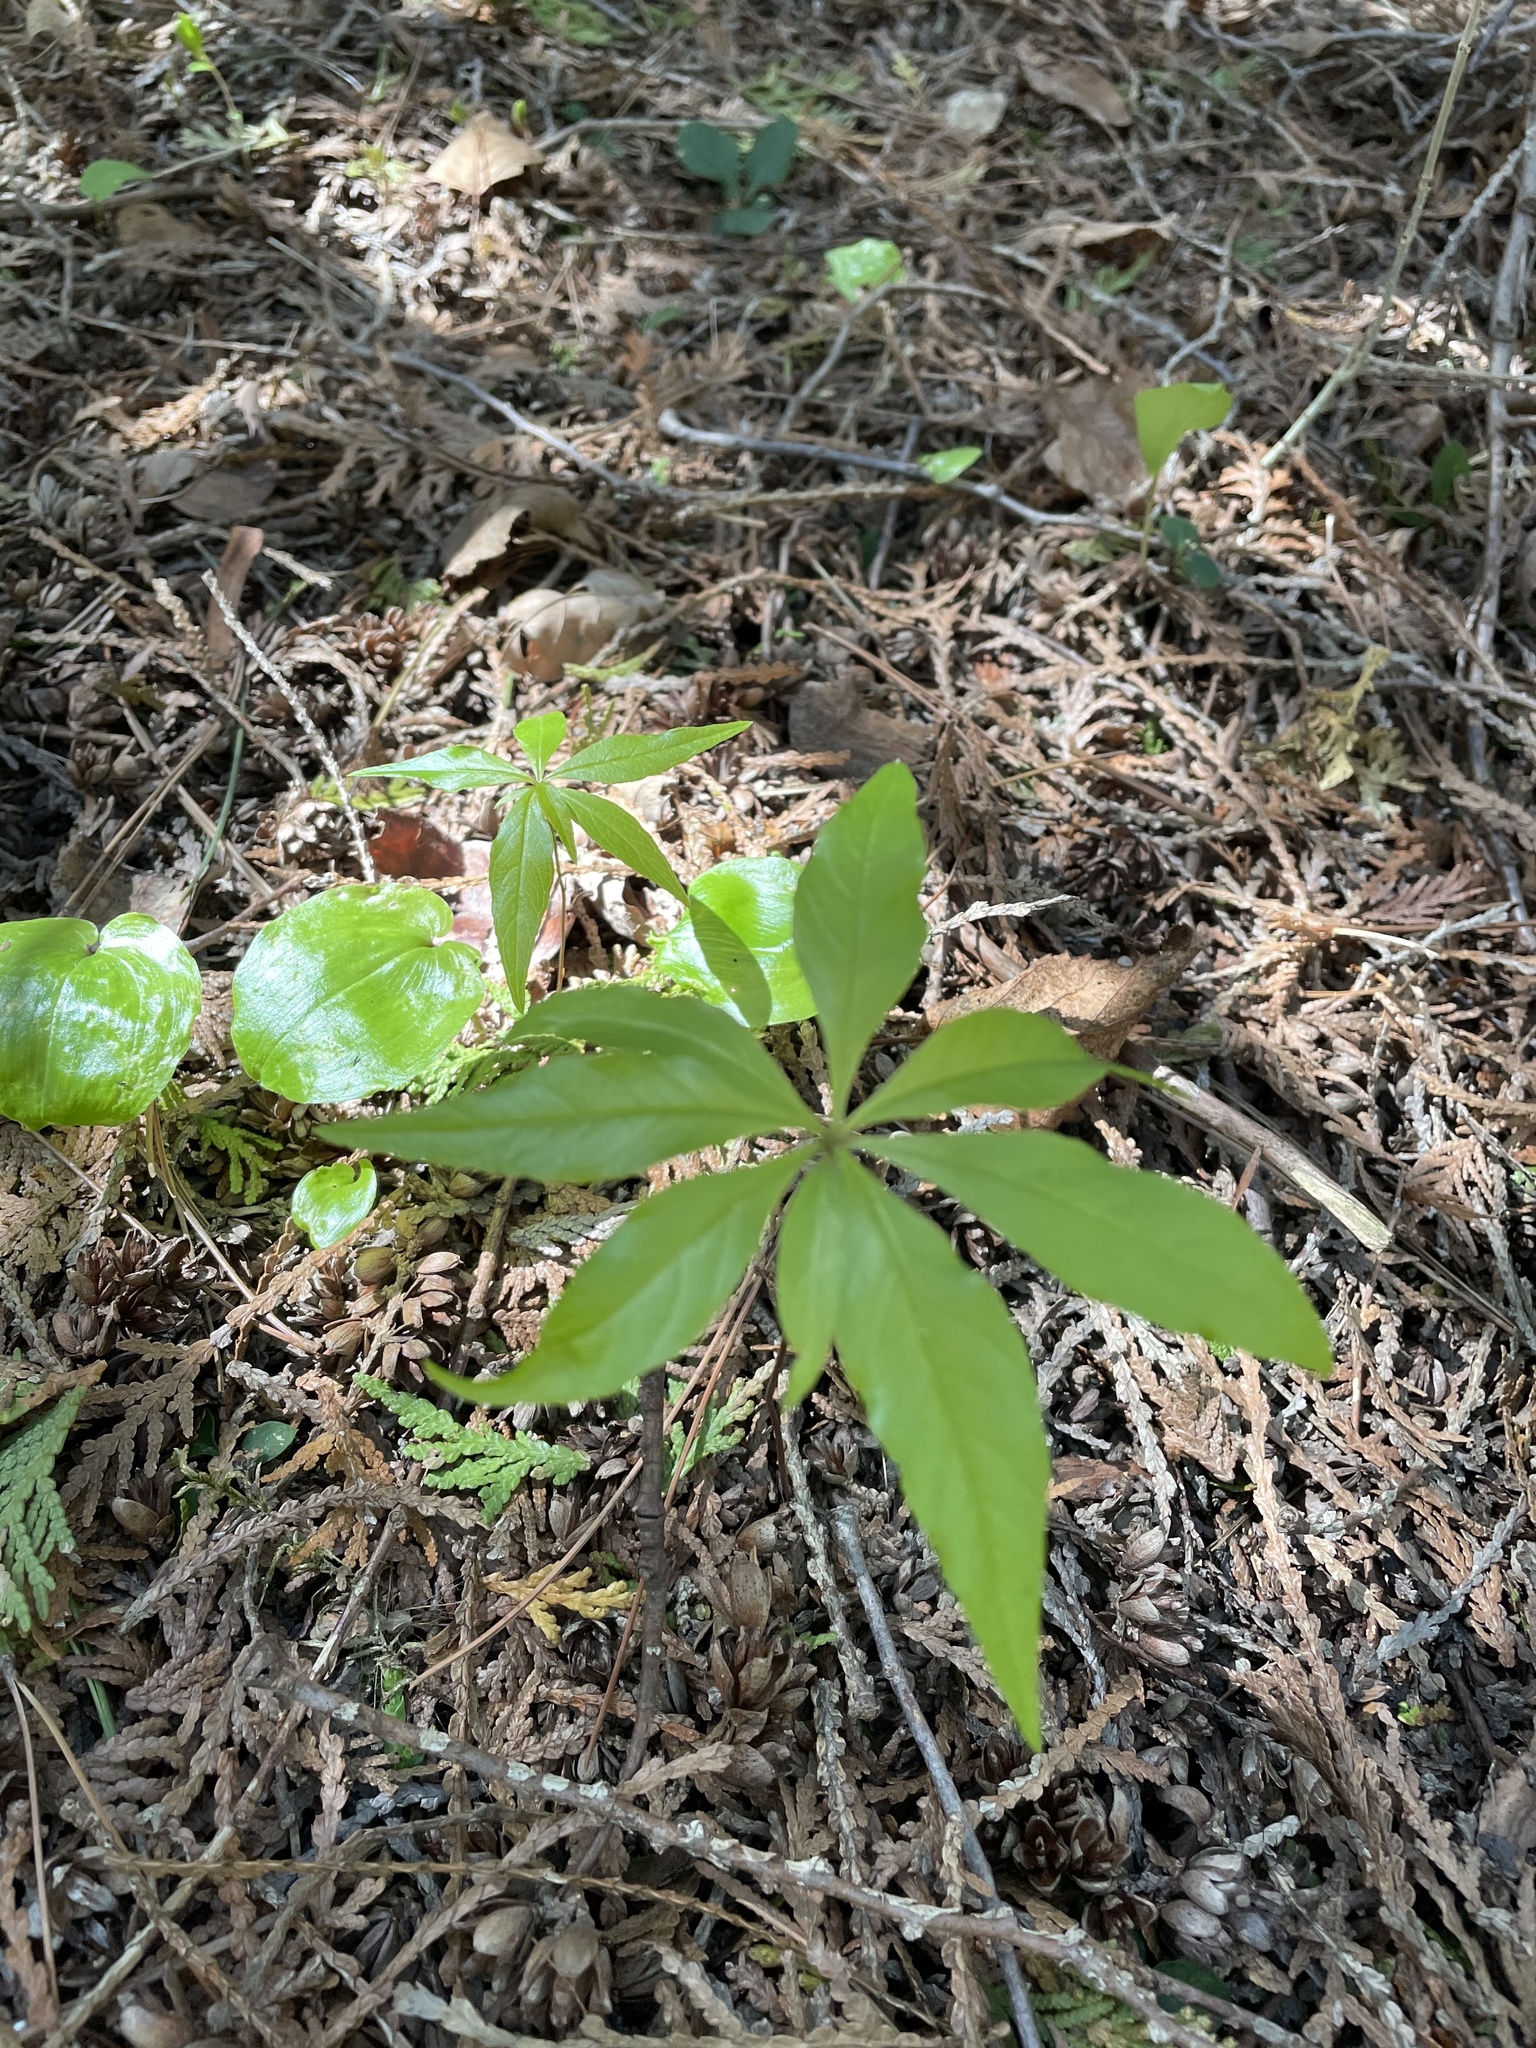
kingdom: Plantae
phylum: Tracheophyta
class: Magnoliopsida
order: Ericales
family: Primulaceae
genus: Lysimachia
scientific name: Lysimachia borealis
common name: American starflower
